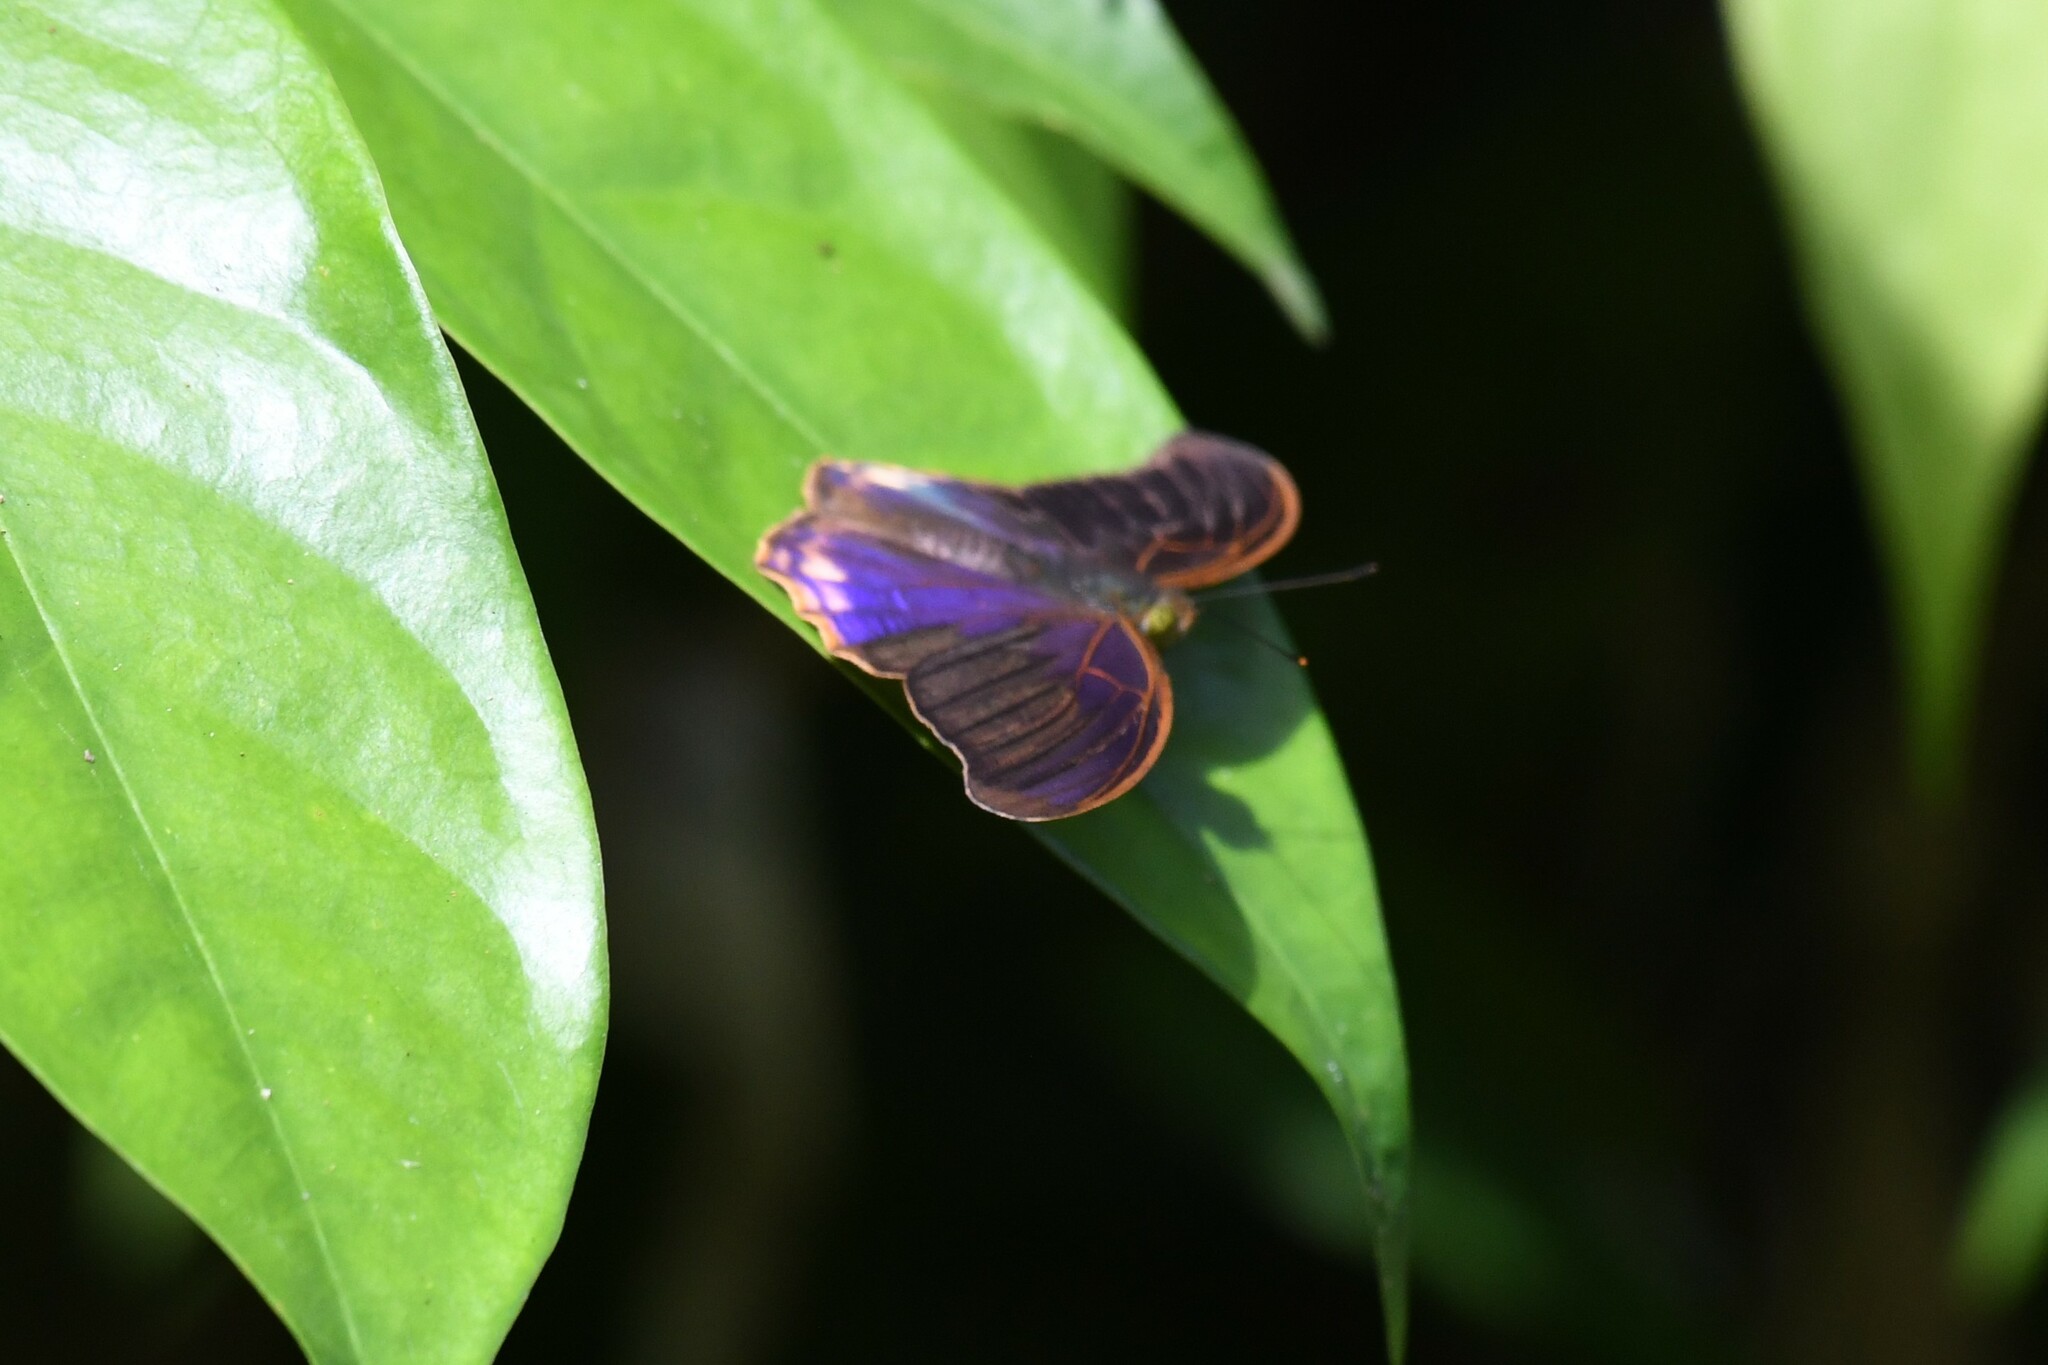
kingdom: Animalia
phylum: Arthropoda
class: Insecta
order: Lepidoptera
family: Nymphalidae
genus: Terinos
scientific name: Terinos terpander
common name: Royal assyrian
